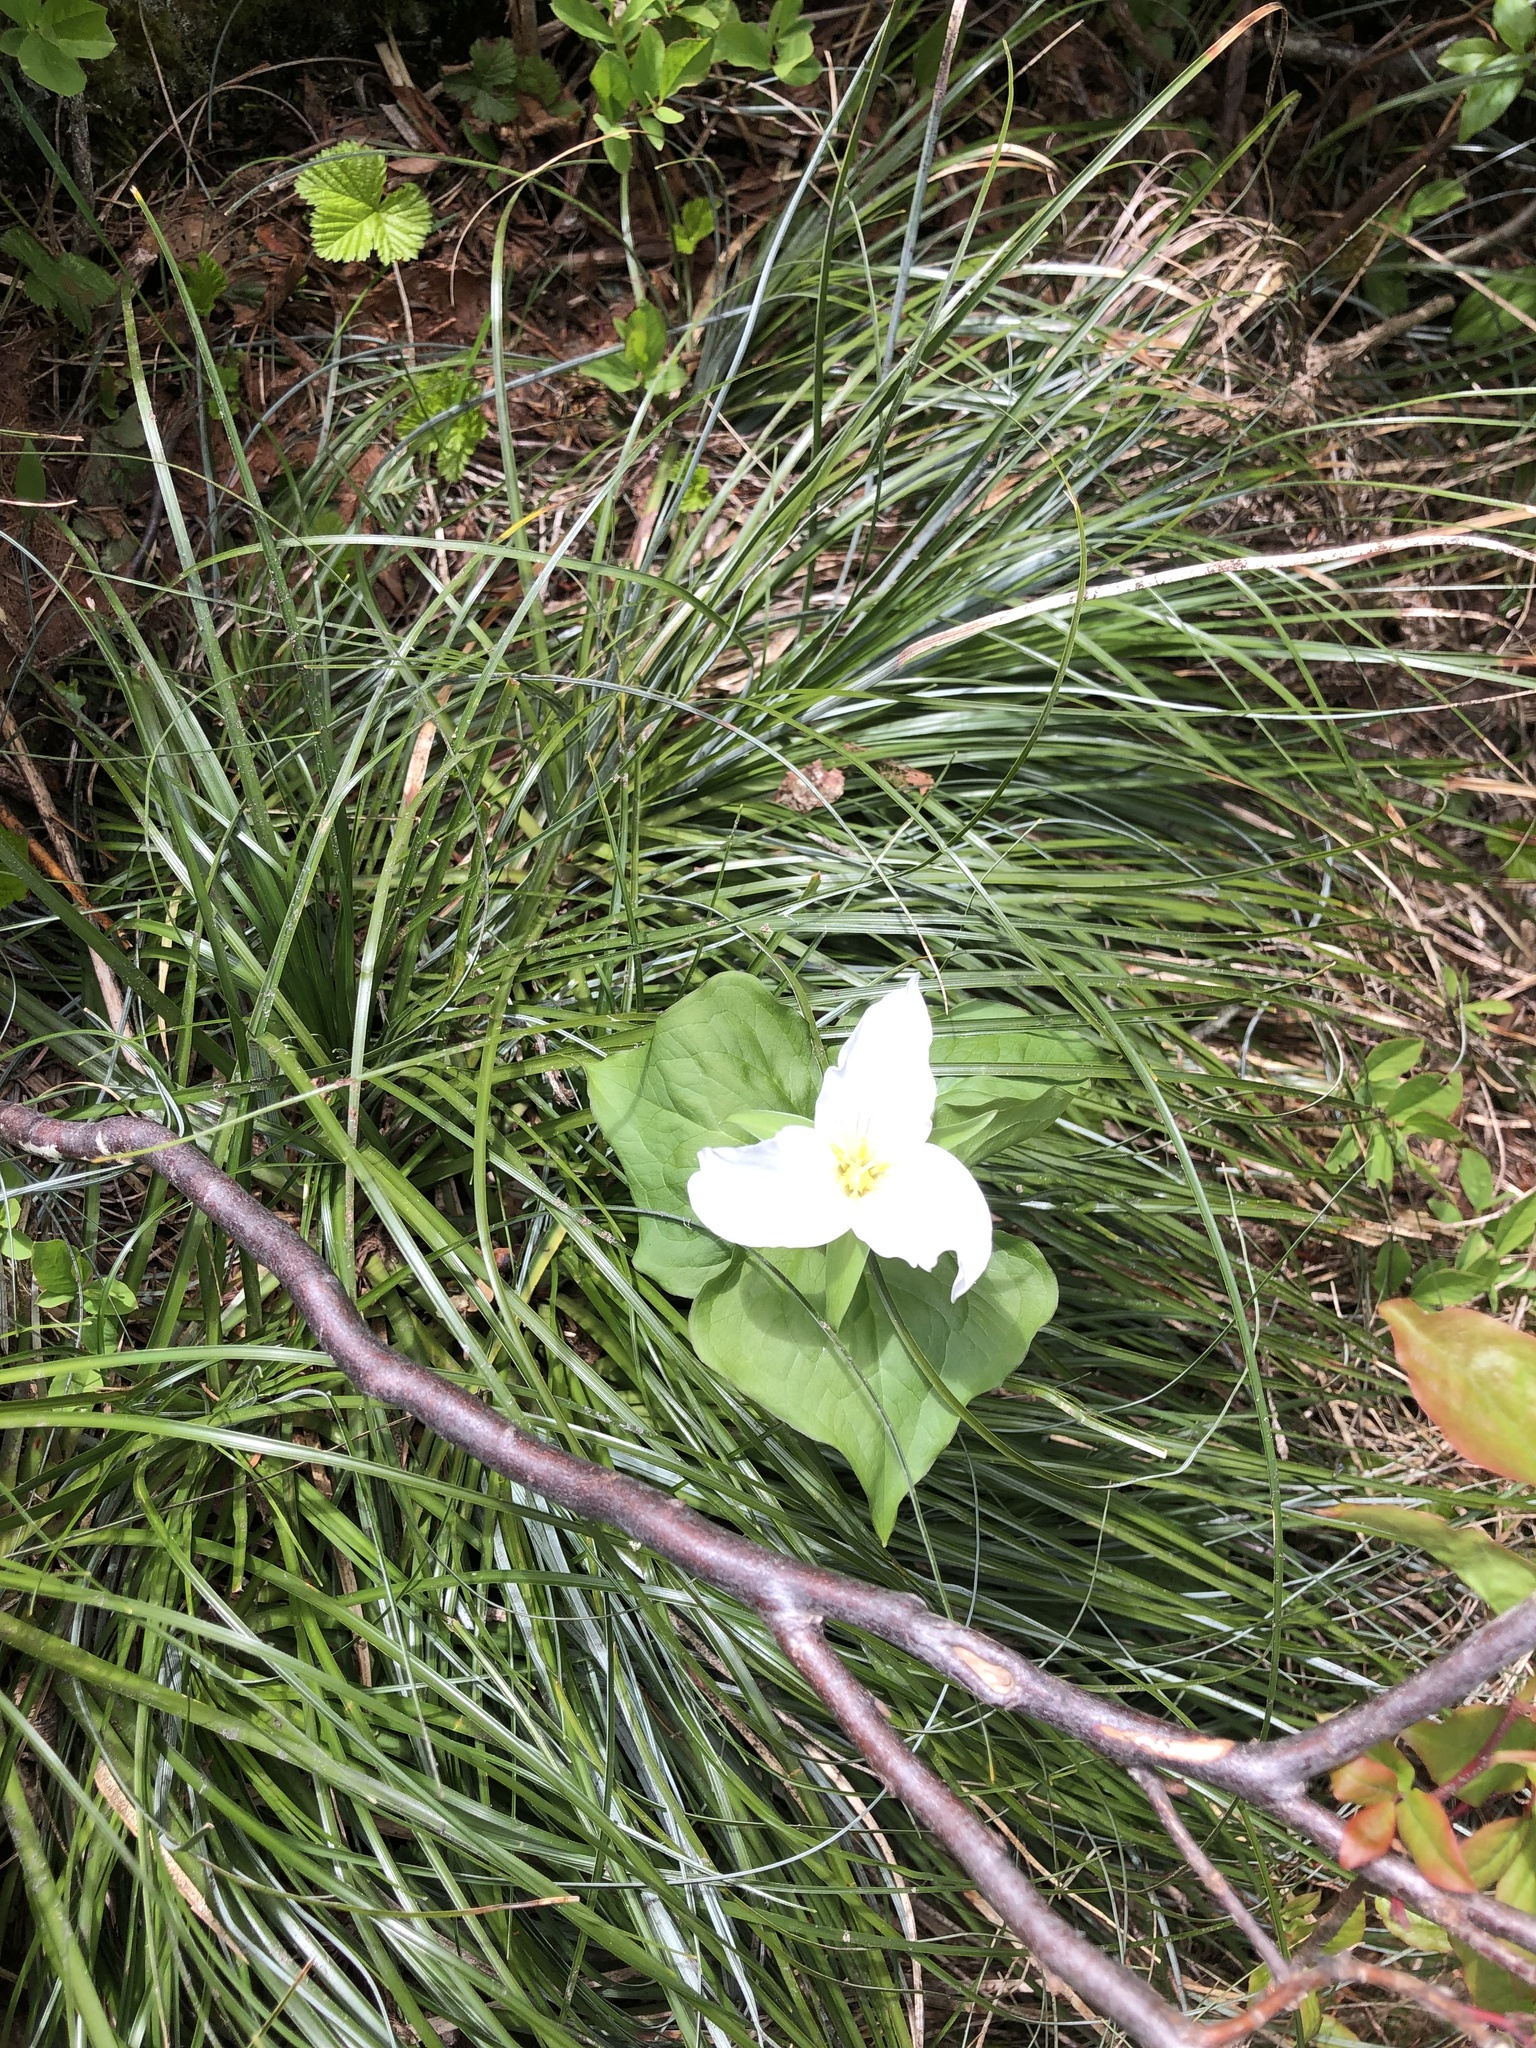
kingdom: Plantae
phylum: Tracheophyta
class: Liliopsida
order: Liliales
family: Melanthiaceae
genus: Trillium
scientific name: Trillium ovatum
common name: Pacific trillium
